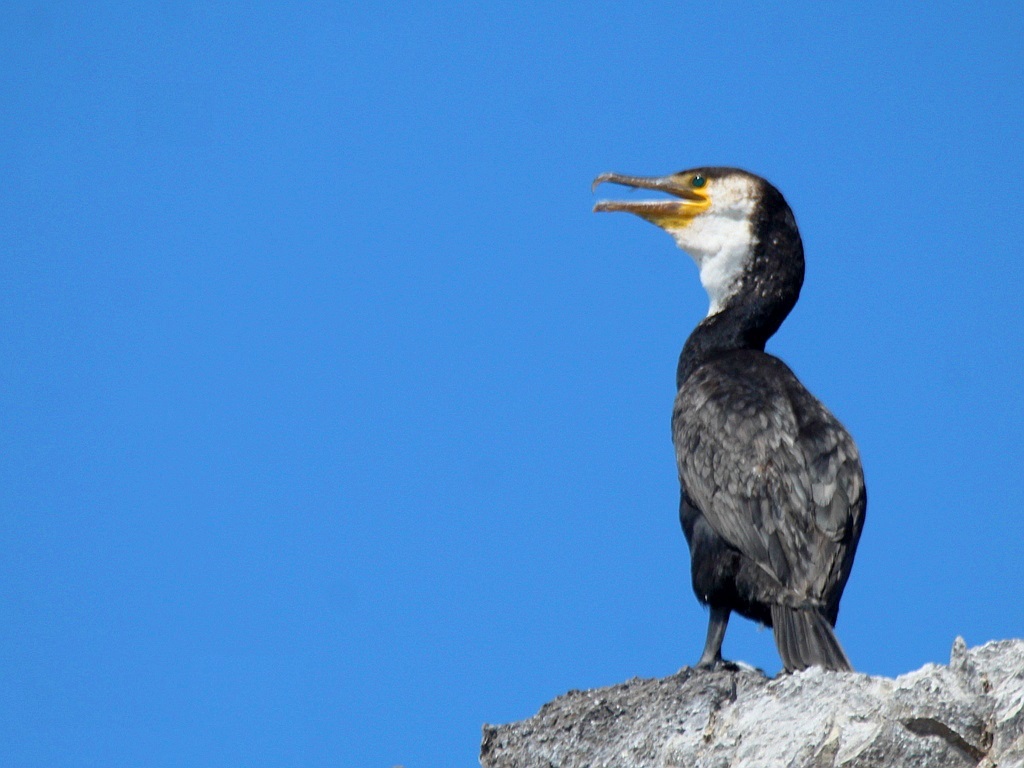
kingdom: Animalia
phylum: Chordata
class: Aves
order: Suliformes
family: Phalacrocoracidae
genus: Phalacrocorax
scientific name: Phalacrocorax capillatus
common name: Japanese cormorant
